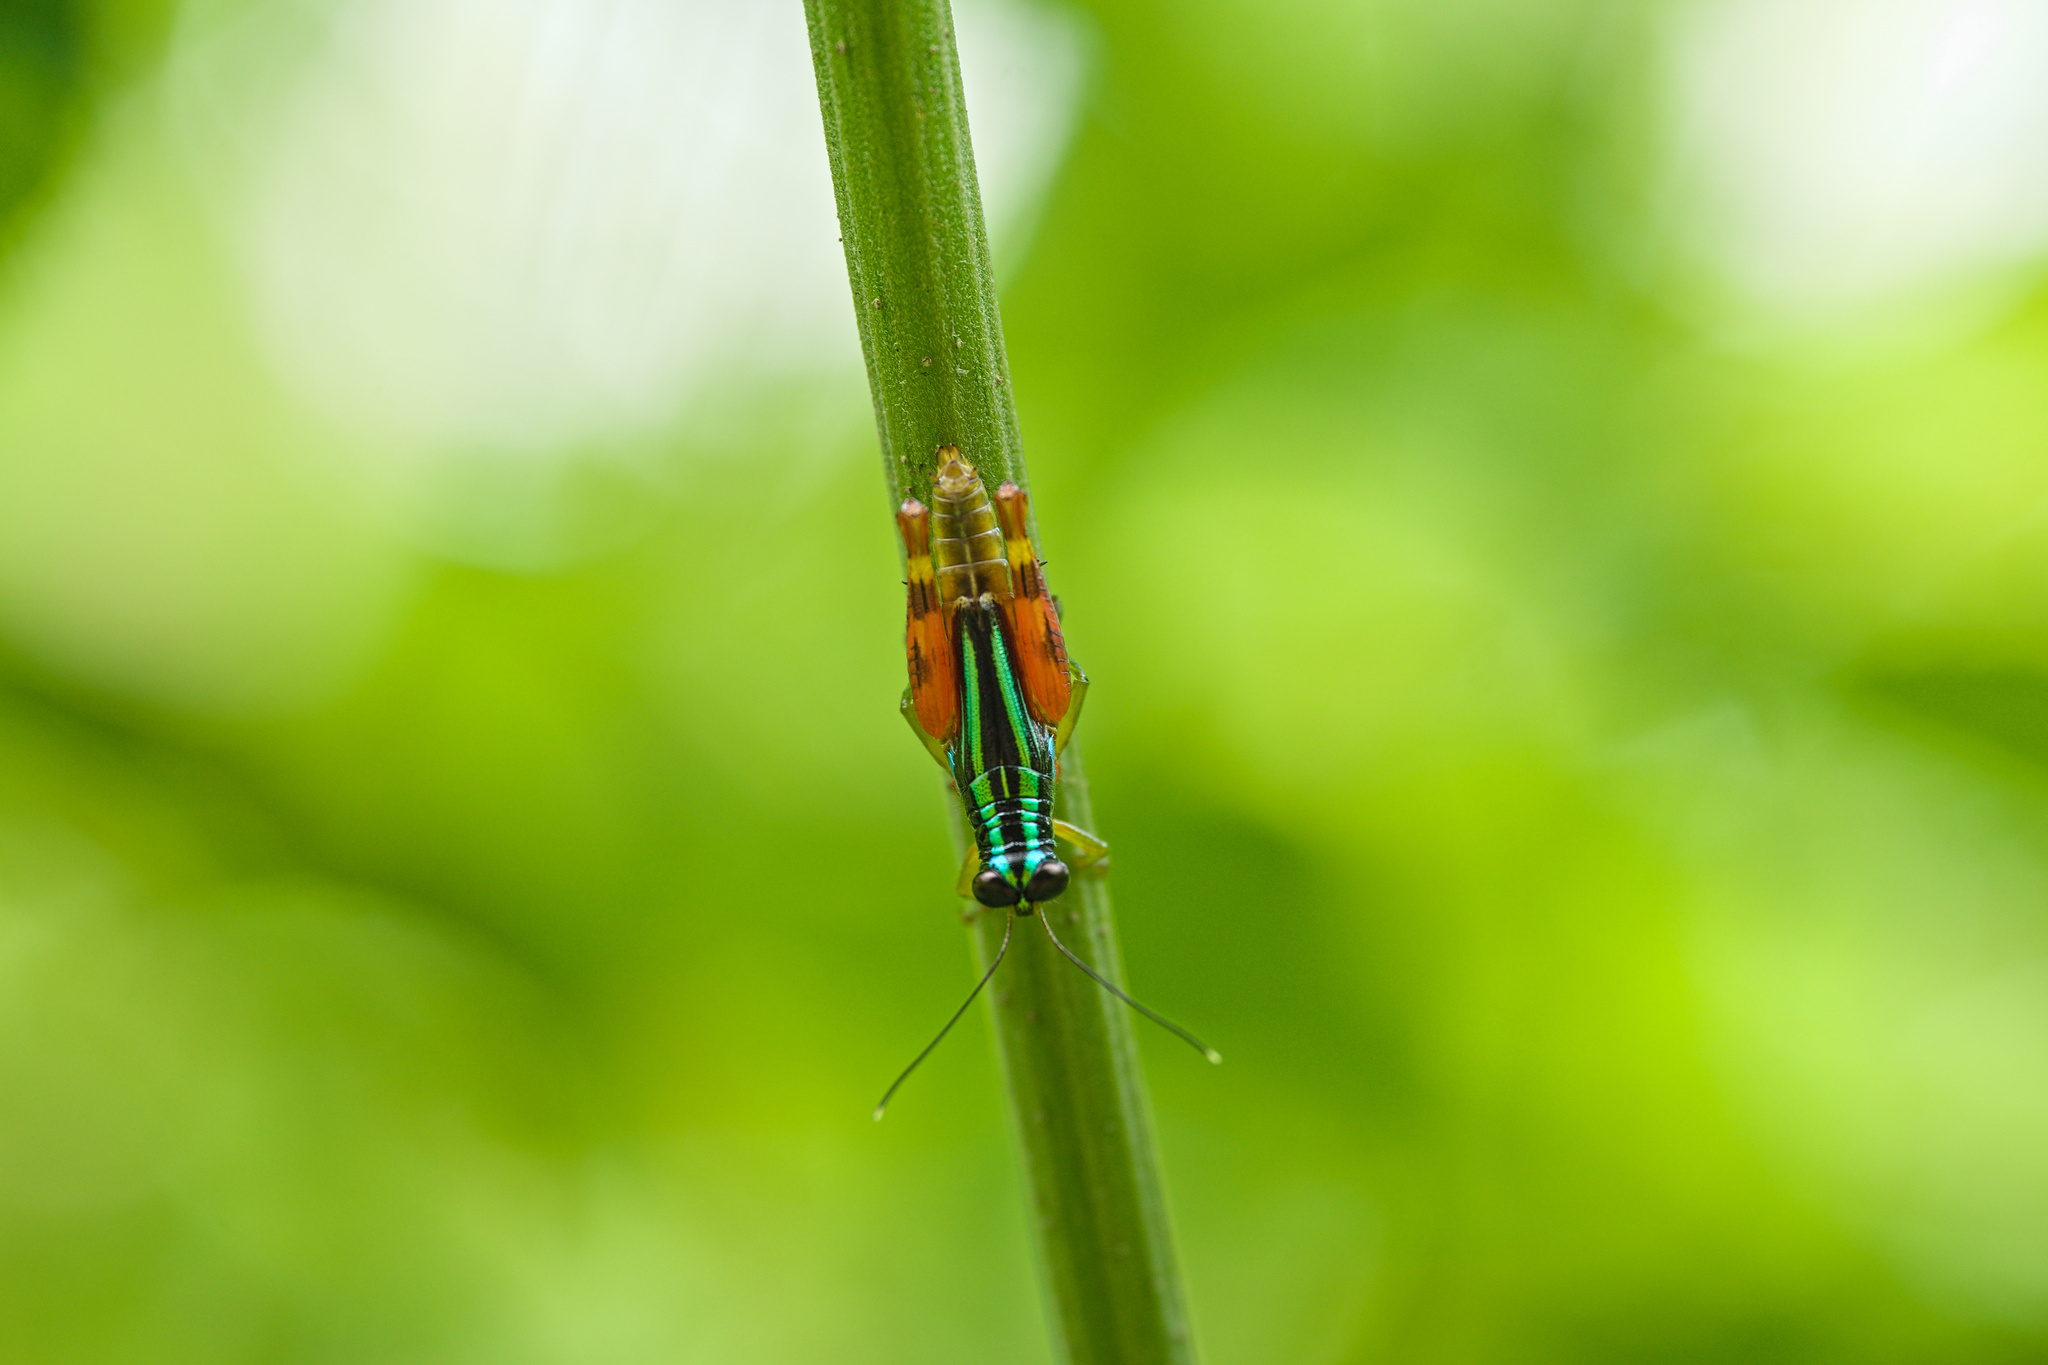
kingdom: Animalia
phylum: Arthropoda
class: Insecta
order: Orthoptera
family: Romaleidae
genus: Taeniophora
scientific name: Taeniophora femorata
